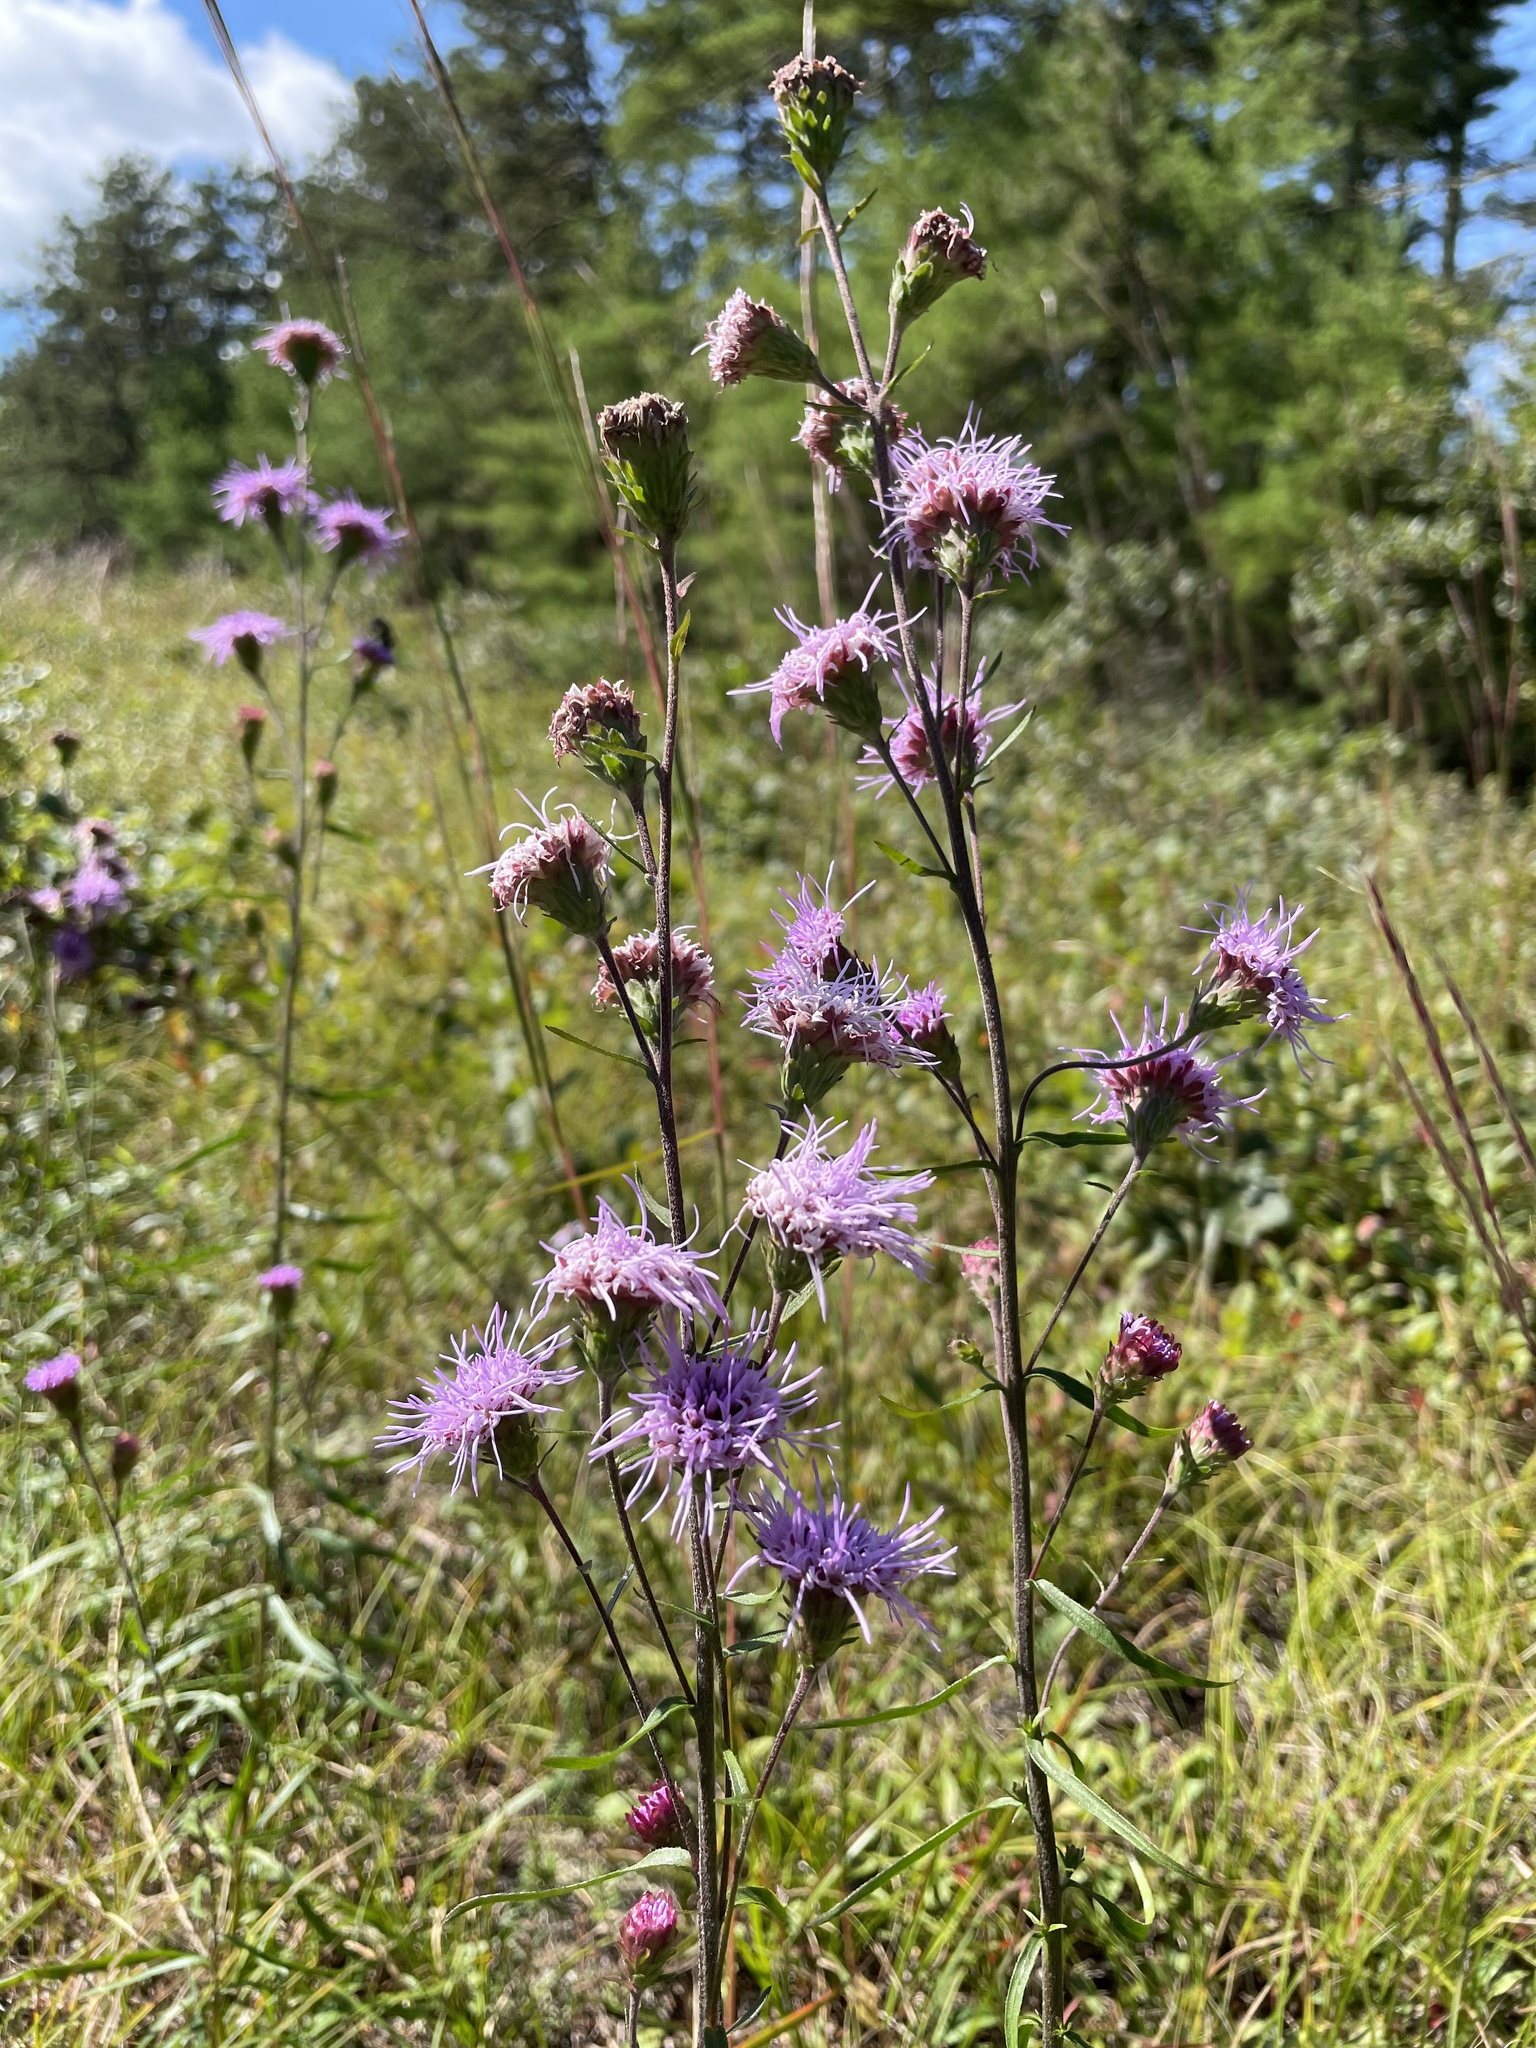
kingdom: Plantae
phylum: Tracheophyta
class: Magnoliopsida
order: Asterales
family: Asteraceae
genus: Liatris
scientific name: Liatris scariosa
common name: Northern gayfeather
